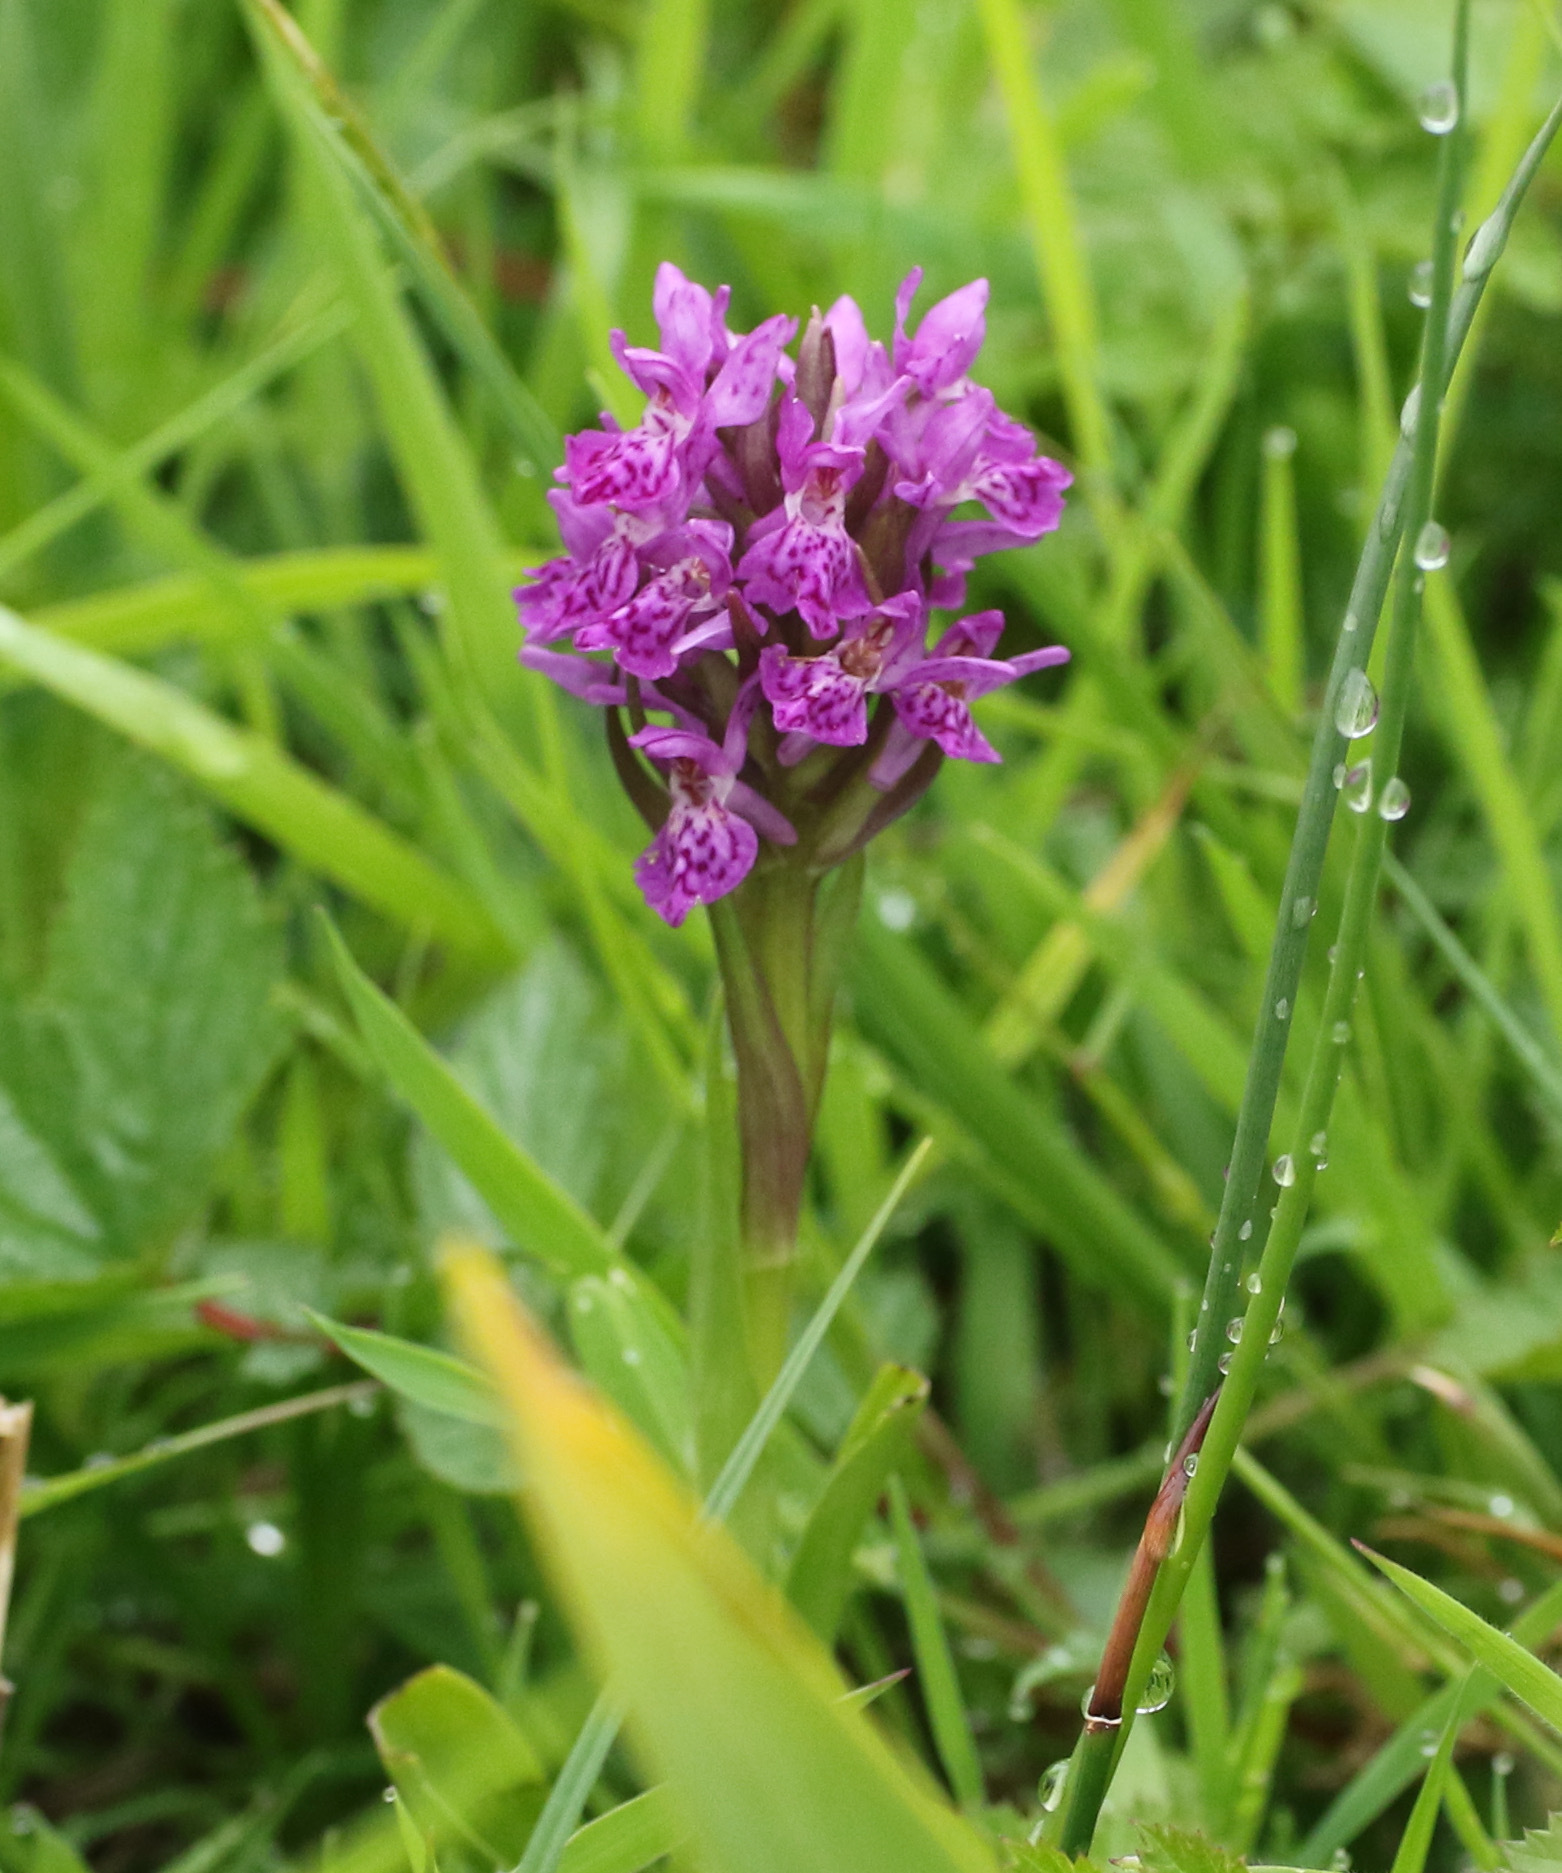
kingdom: Plantae
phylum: Tracheophyta
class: Liliopsida
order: Asparagales
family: Orchidaceae
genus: Dactylorhiza
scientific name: Dactylorhiza majalis
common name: Marsh orchid
